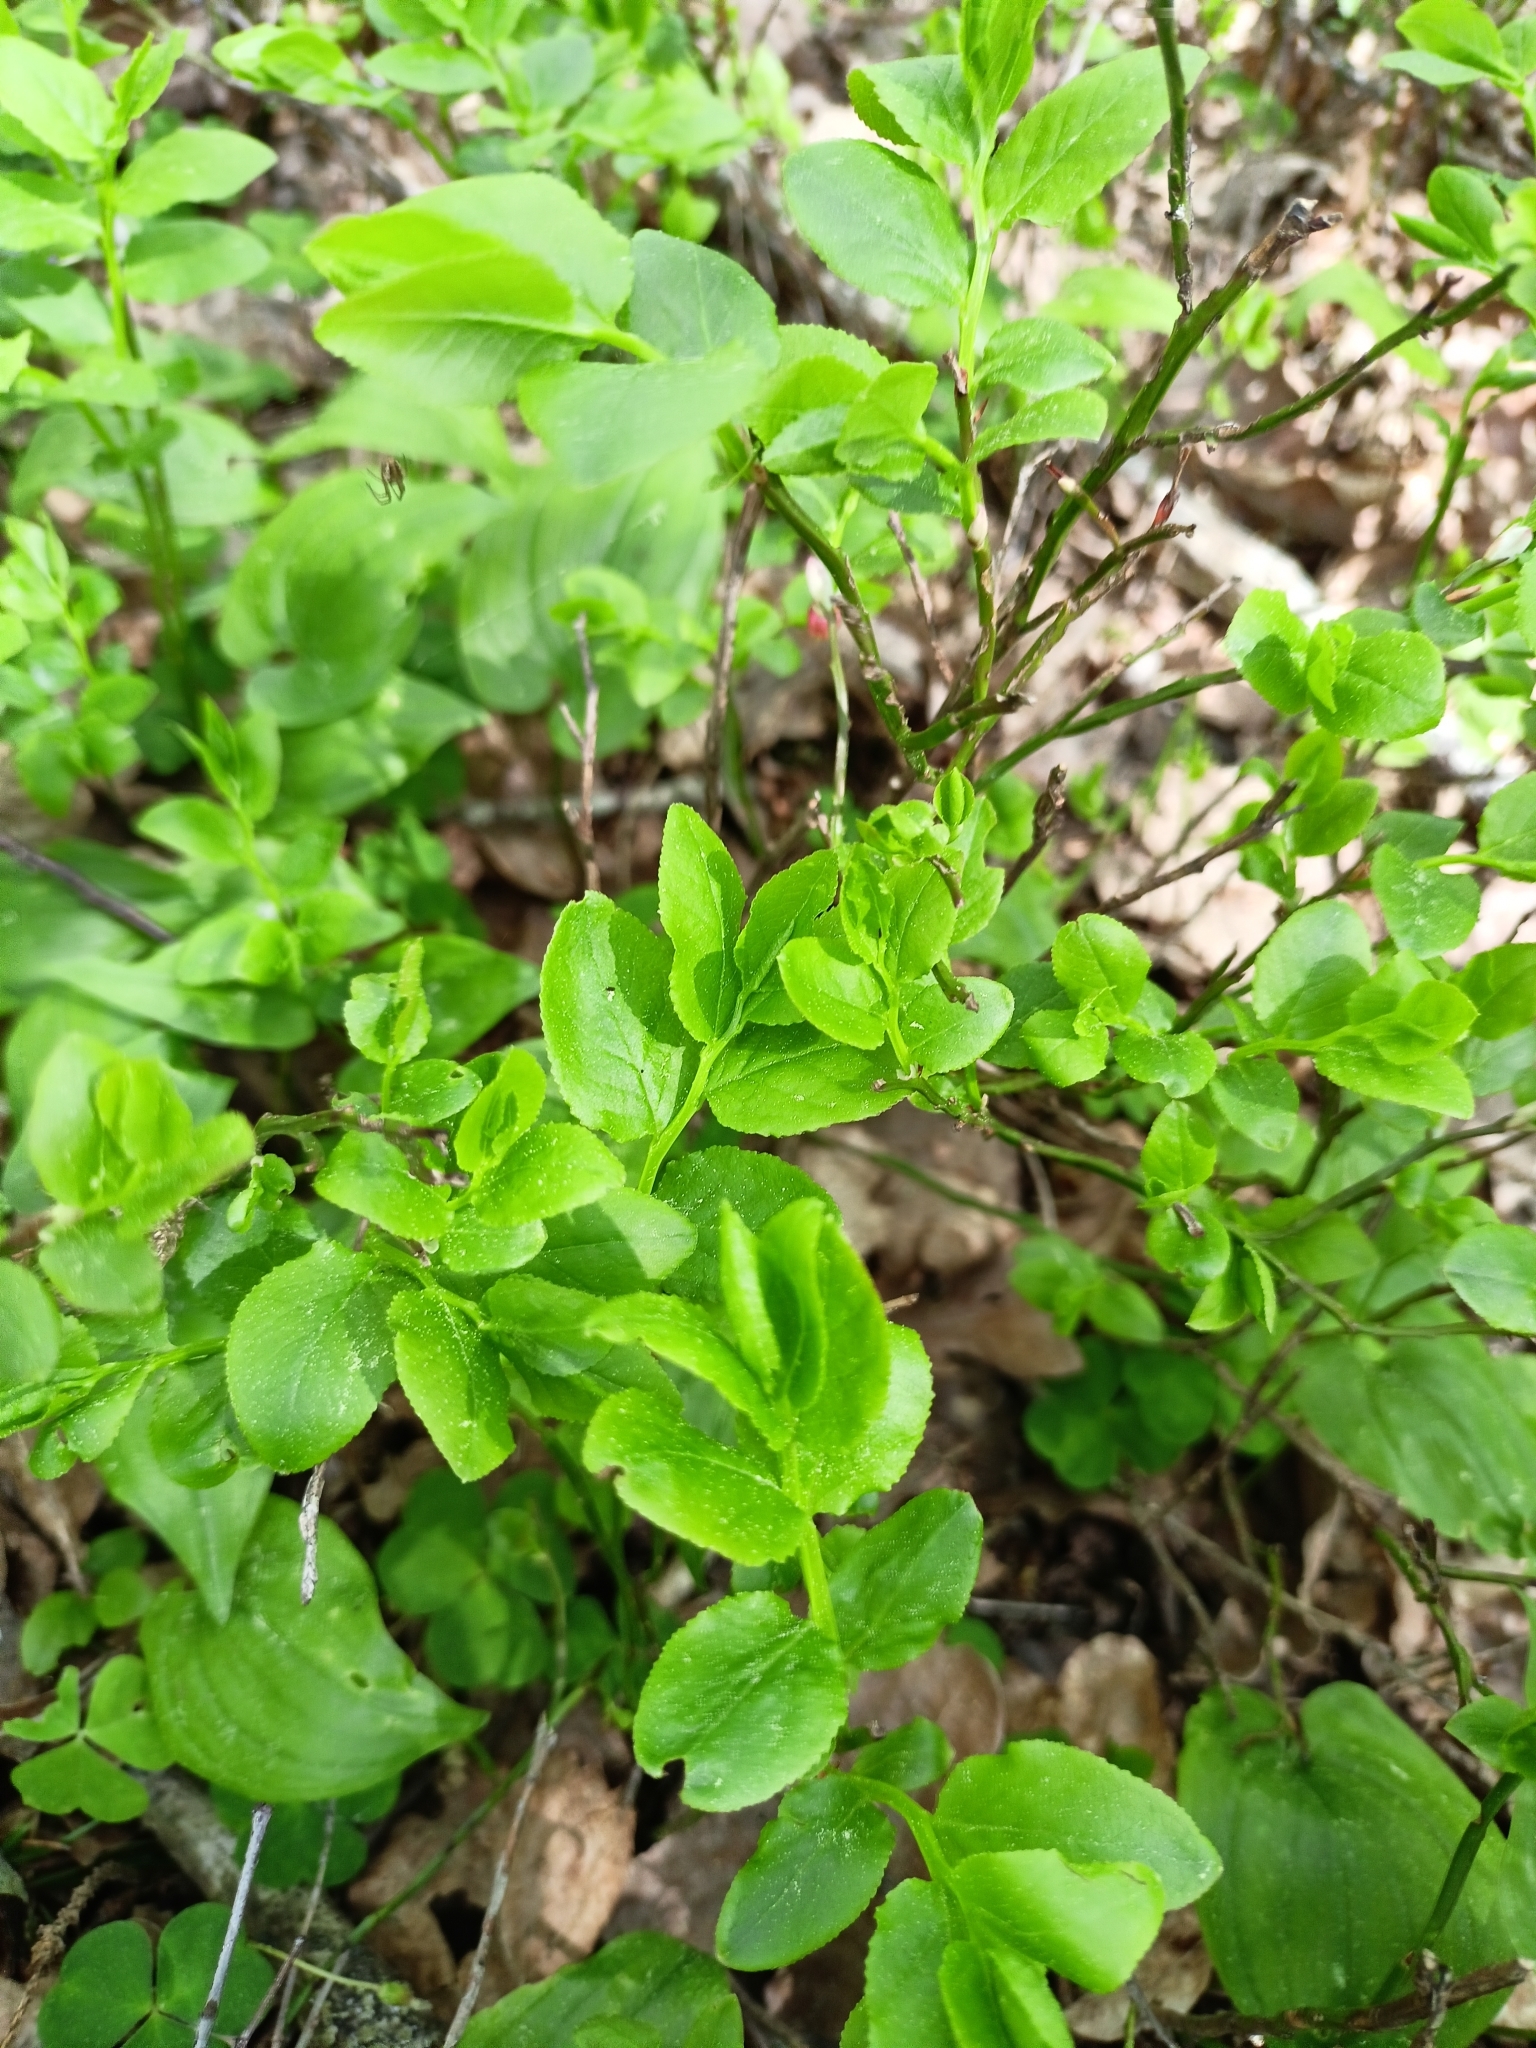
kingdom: Plantae
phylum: Tracheophyta
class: Magnoliopsida
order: Ericales
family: Ericaceae
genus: Vaccinium
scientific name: Vaccinium myrtillus
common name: Bilberry
